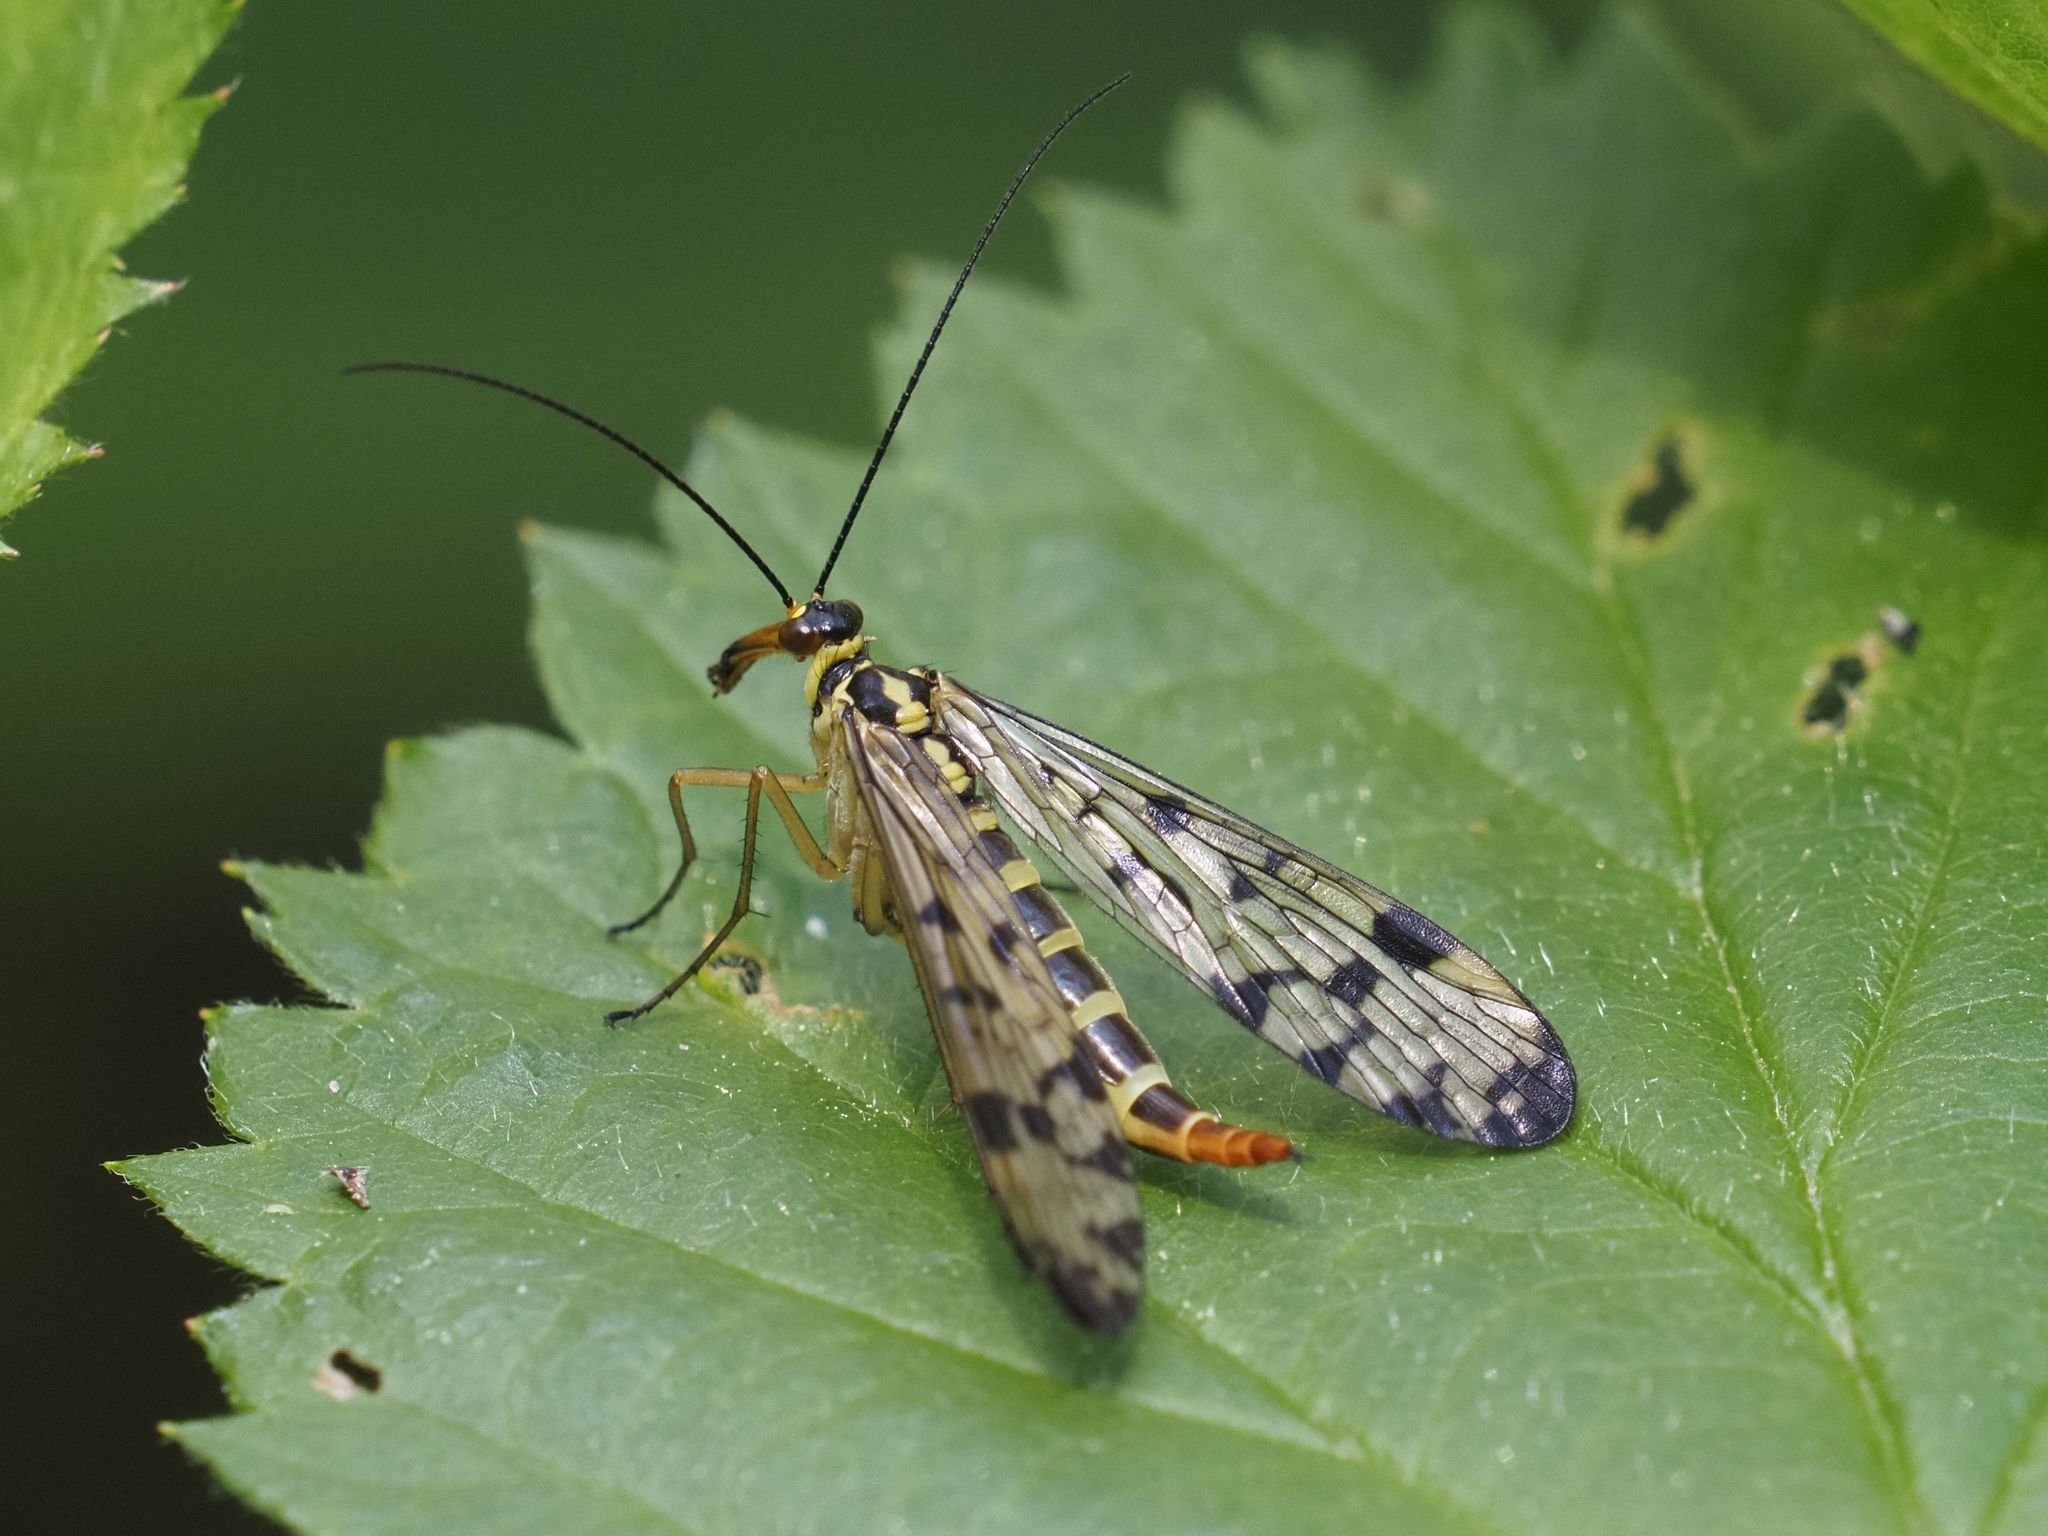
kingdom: Animalia
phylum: Arthropoda
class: Insecta
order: Mecoptera
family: Panorpidae
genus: Panorpa
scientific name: Panorpa germanica
